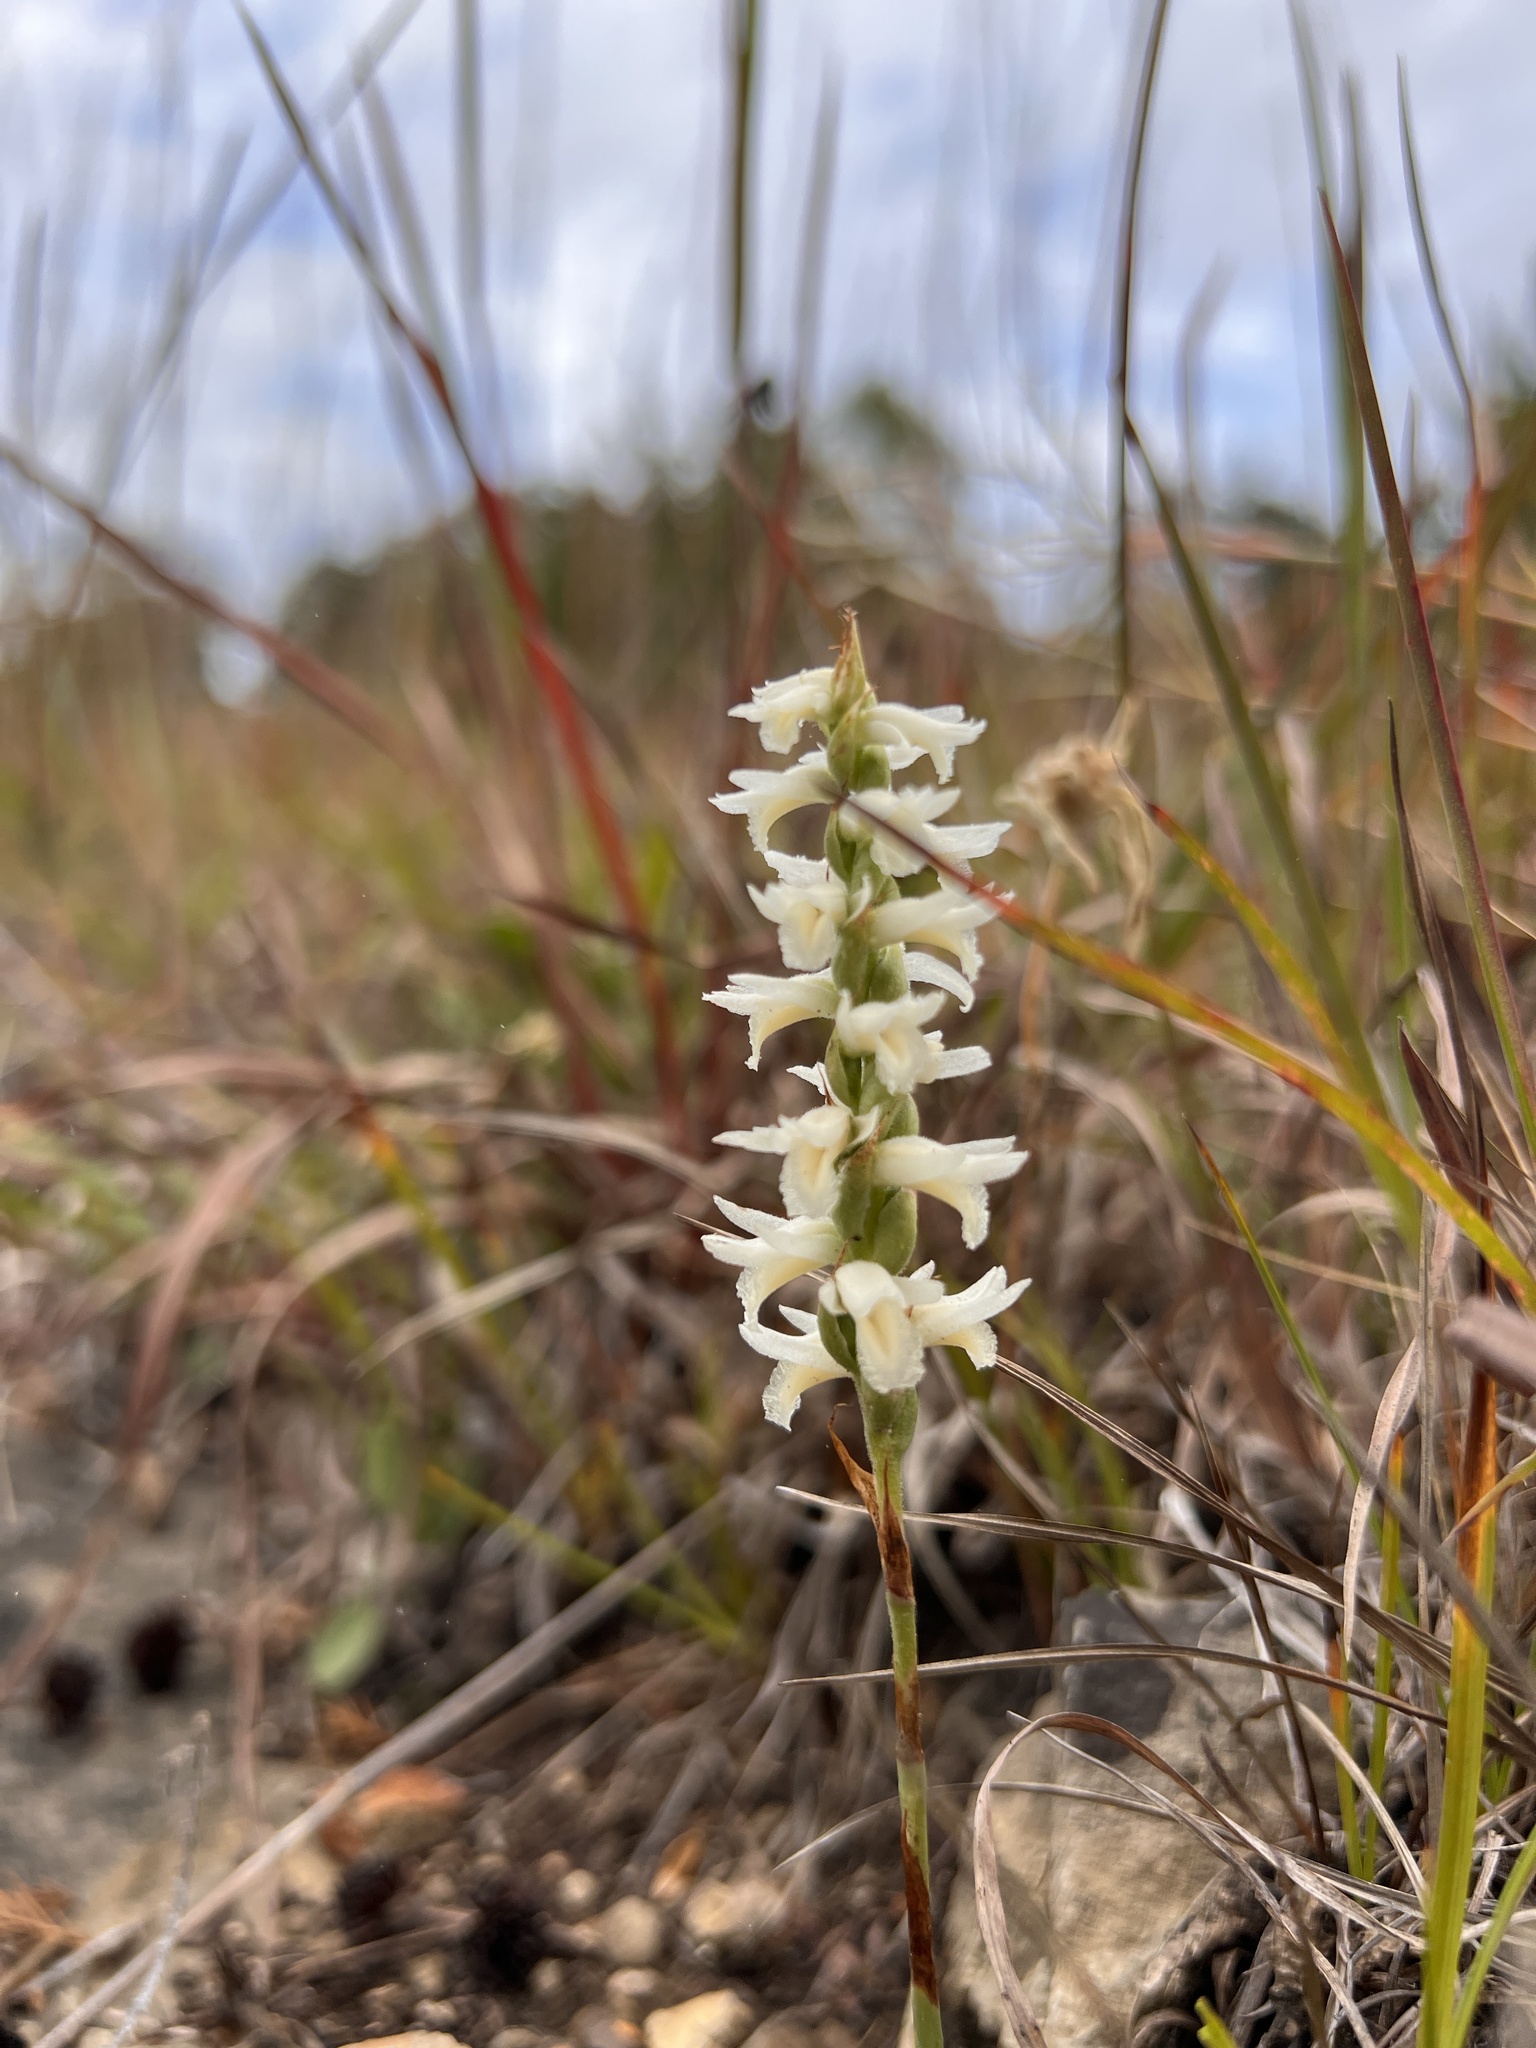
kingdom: Plantae
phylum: Tracheophyta
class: Liliopsida
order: Asparagales
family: Orchidaceae
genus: Spiranthes
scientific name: Spiranthes magnicamporum
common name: Great plains ladies'-tresses
